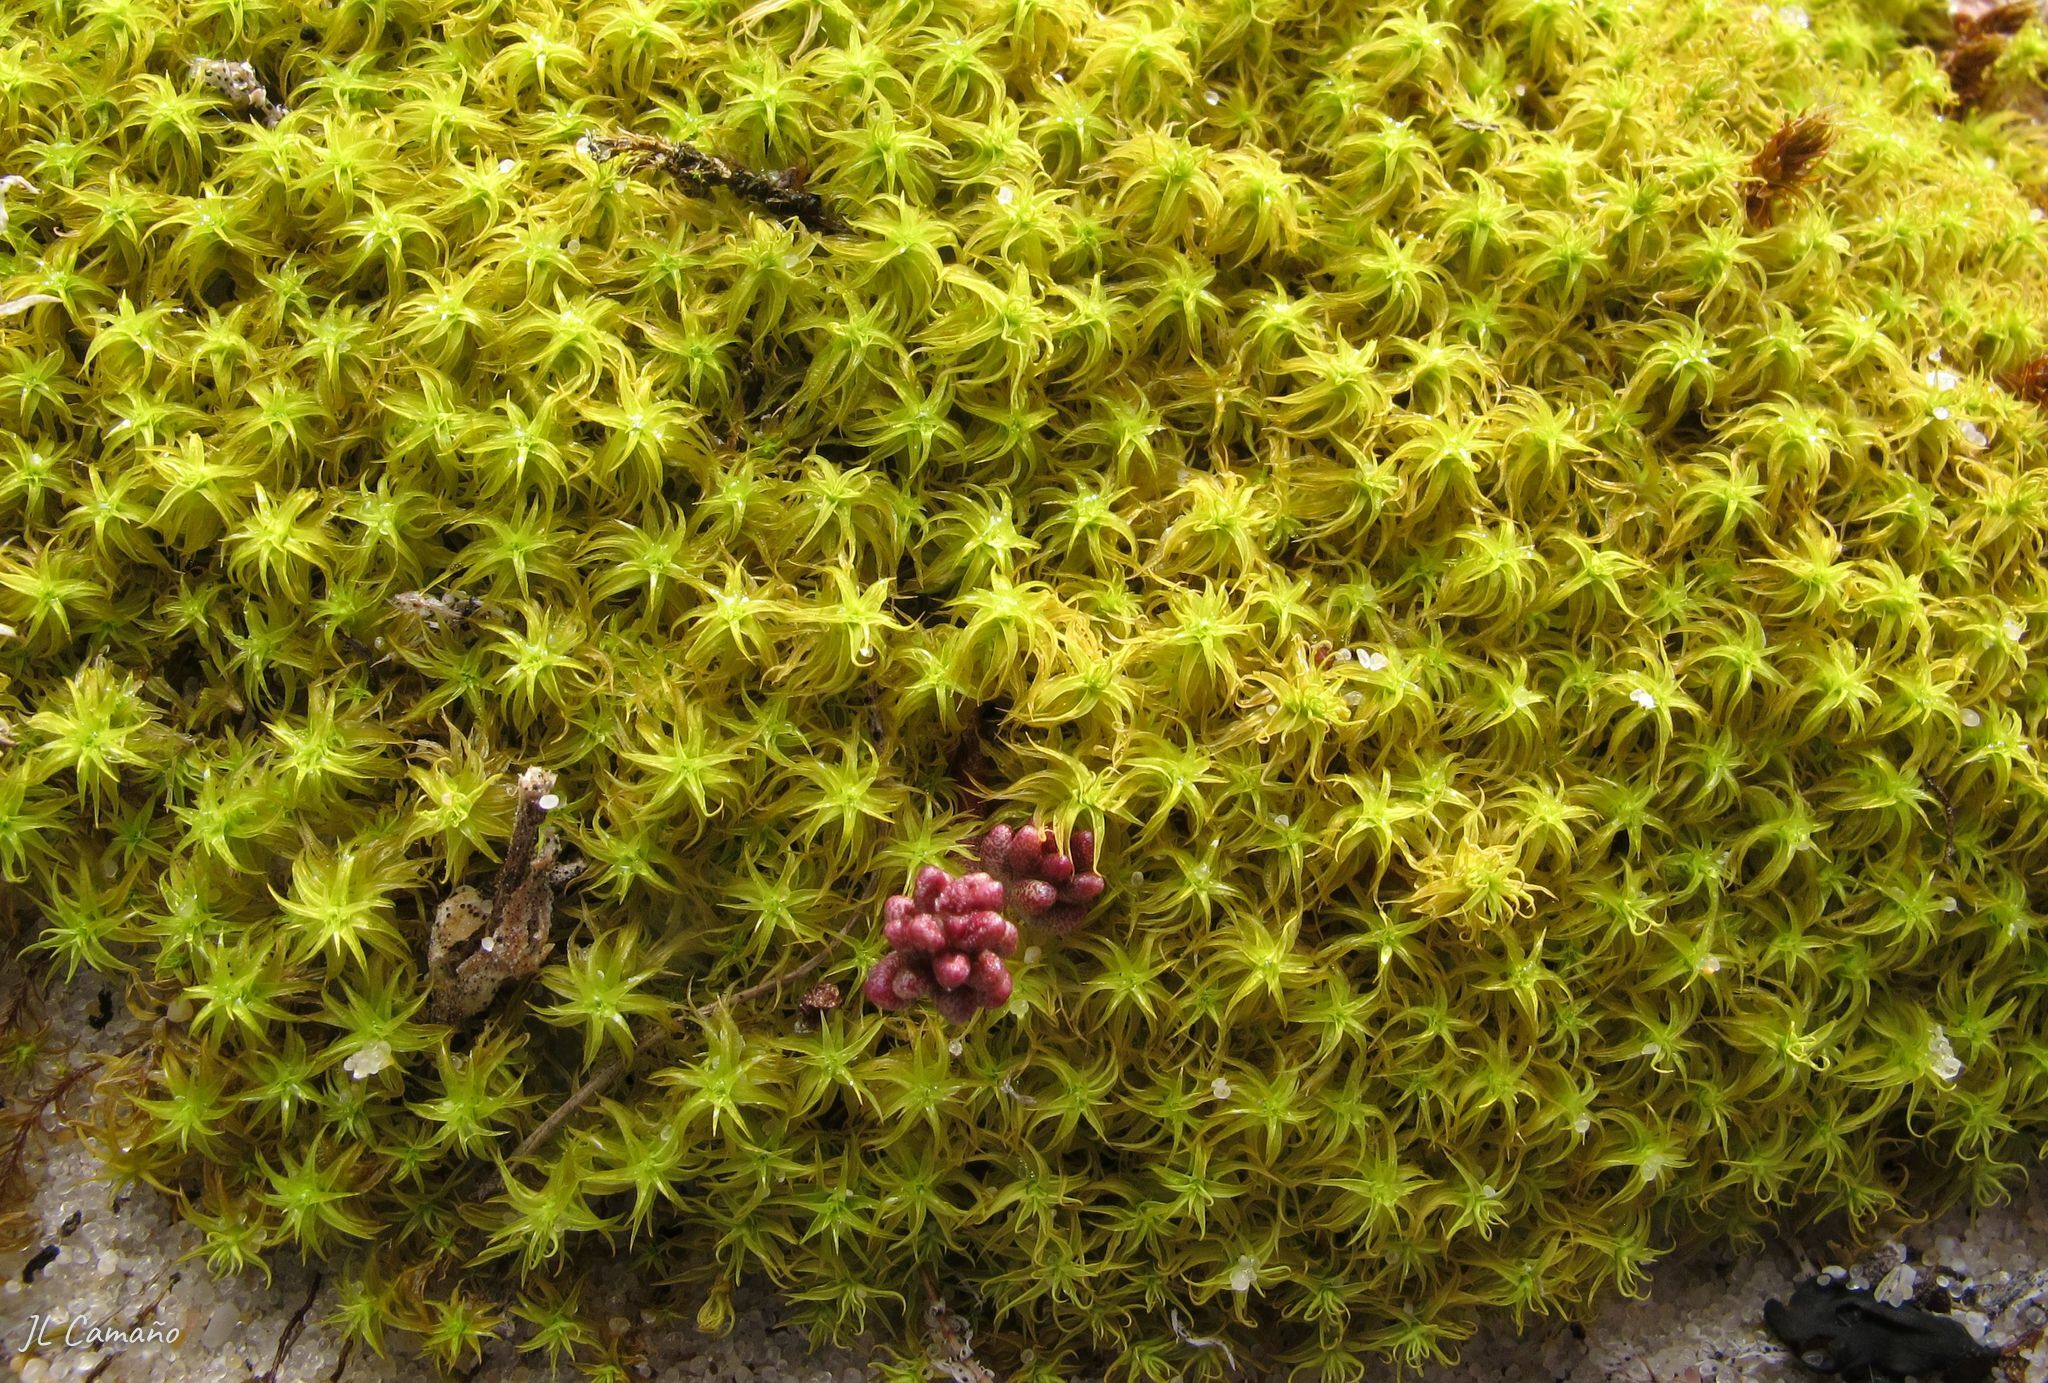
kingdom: Plantae
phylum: Bryophyta
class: Bryopsida
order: Pottiales
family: Pottiaceae
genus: Pleurochaete
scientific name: Pleurochaete squarrosa
